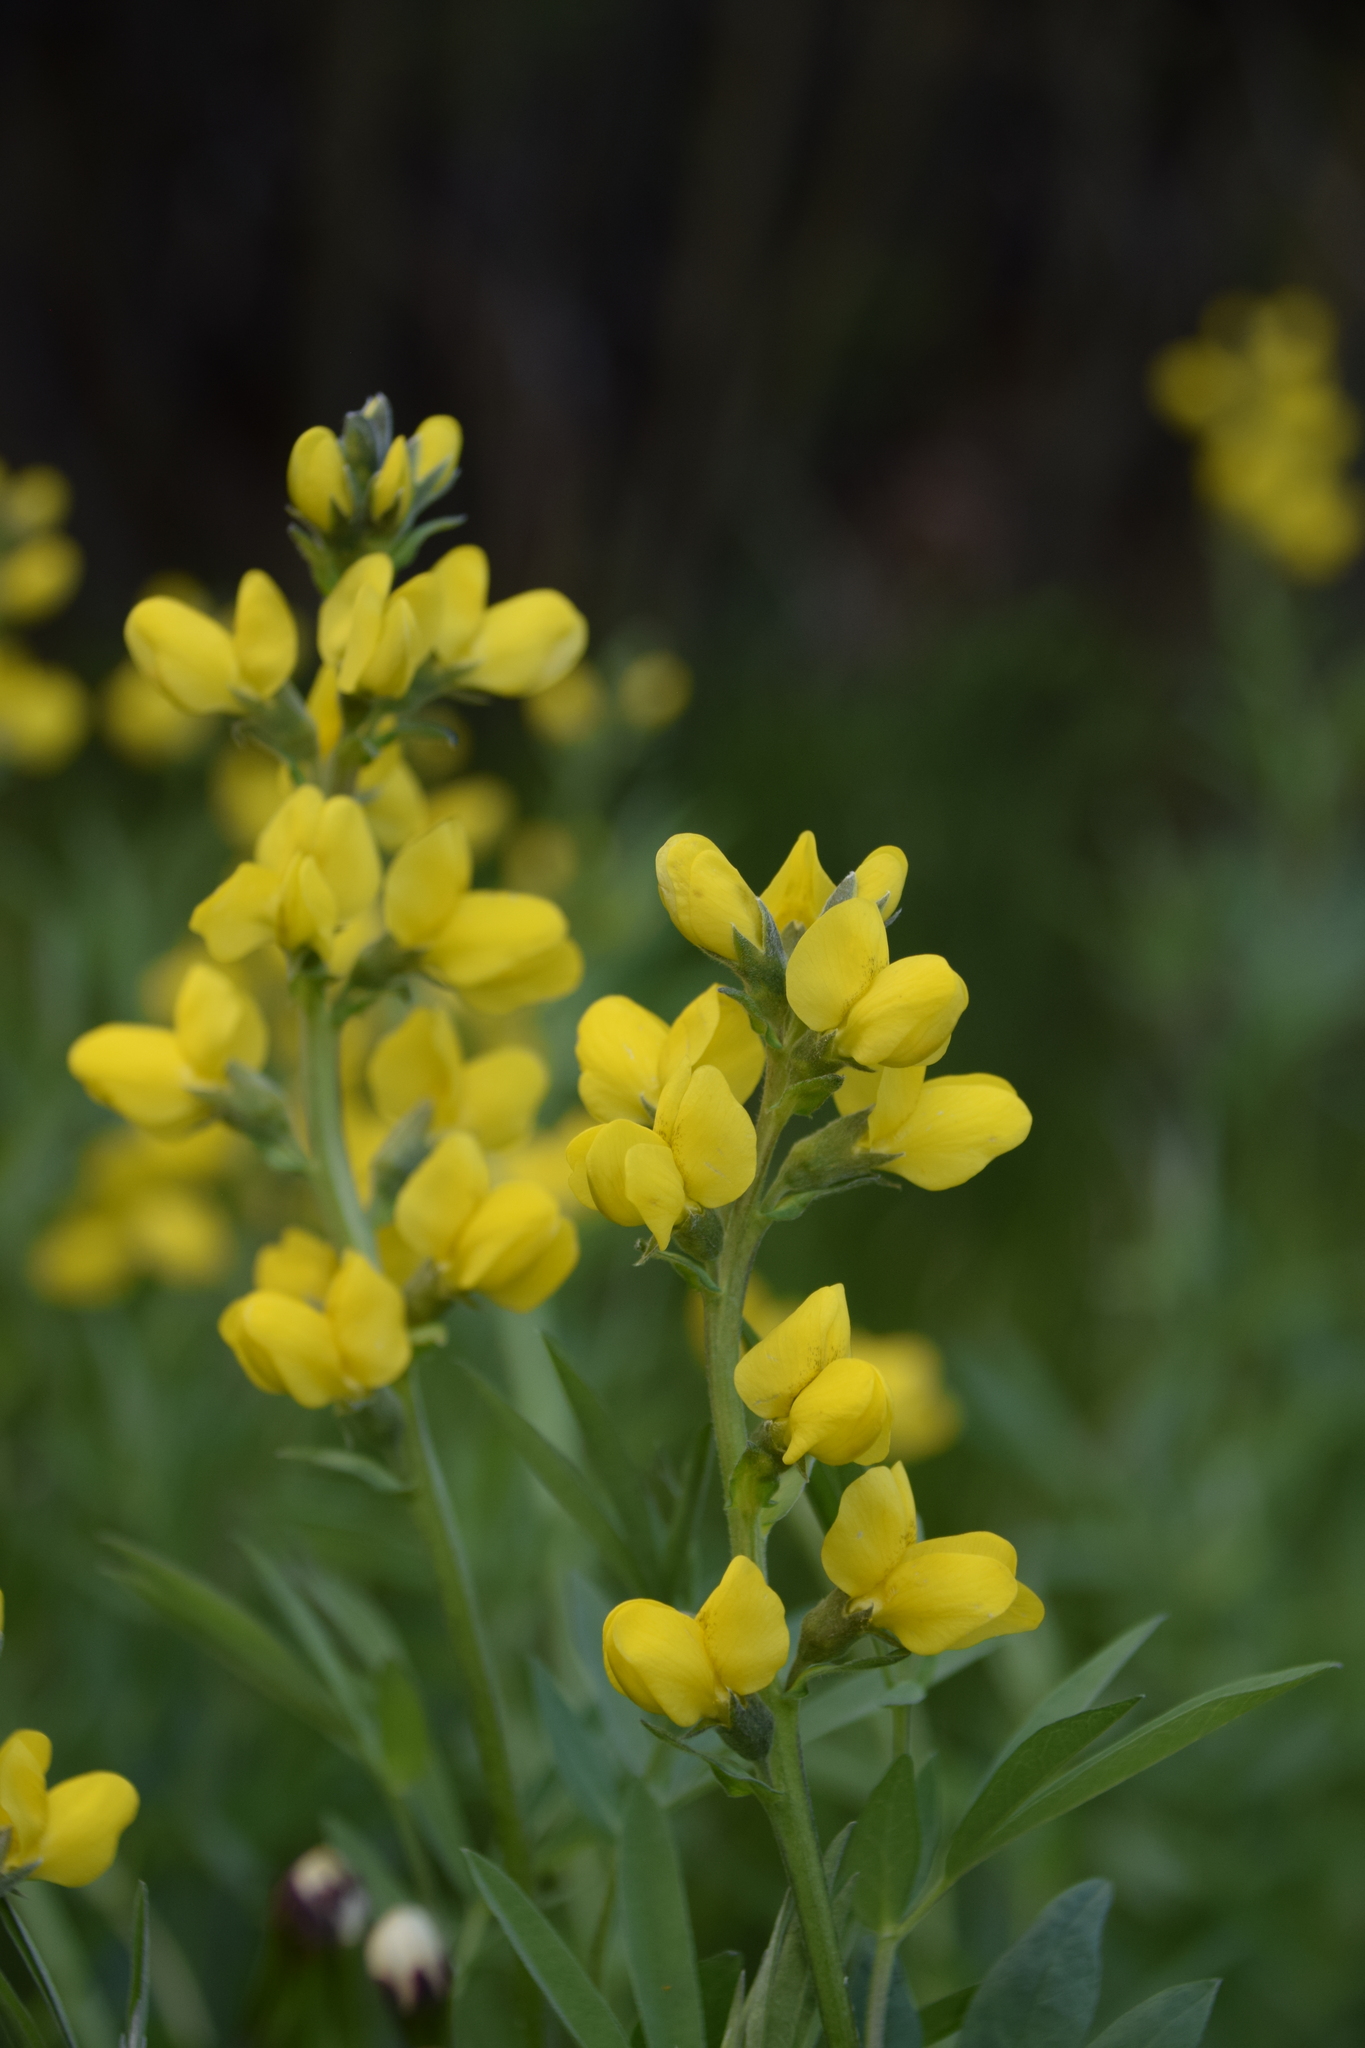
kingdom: Plantae
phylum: Tracheophyta
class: Magnoliopsida
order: Fabales
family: Fabaceae
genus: Thermopsis
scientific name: Thermopsis montana
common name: False lupin
